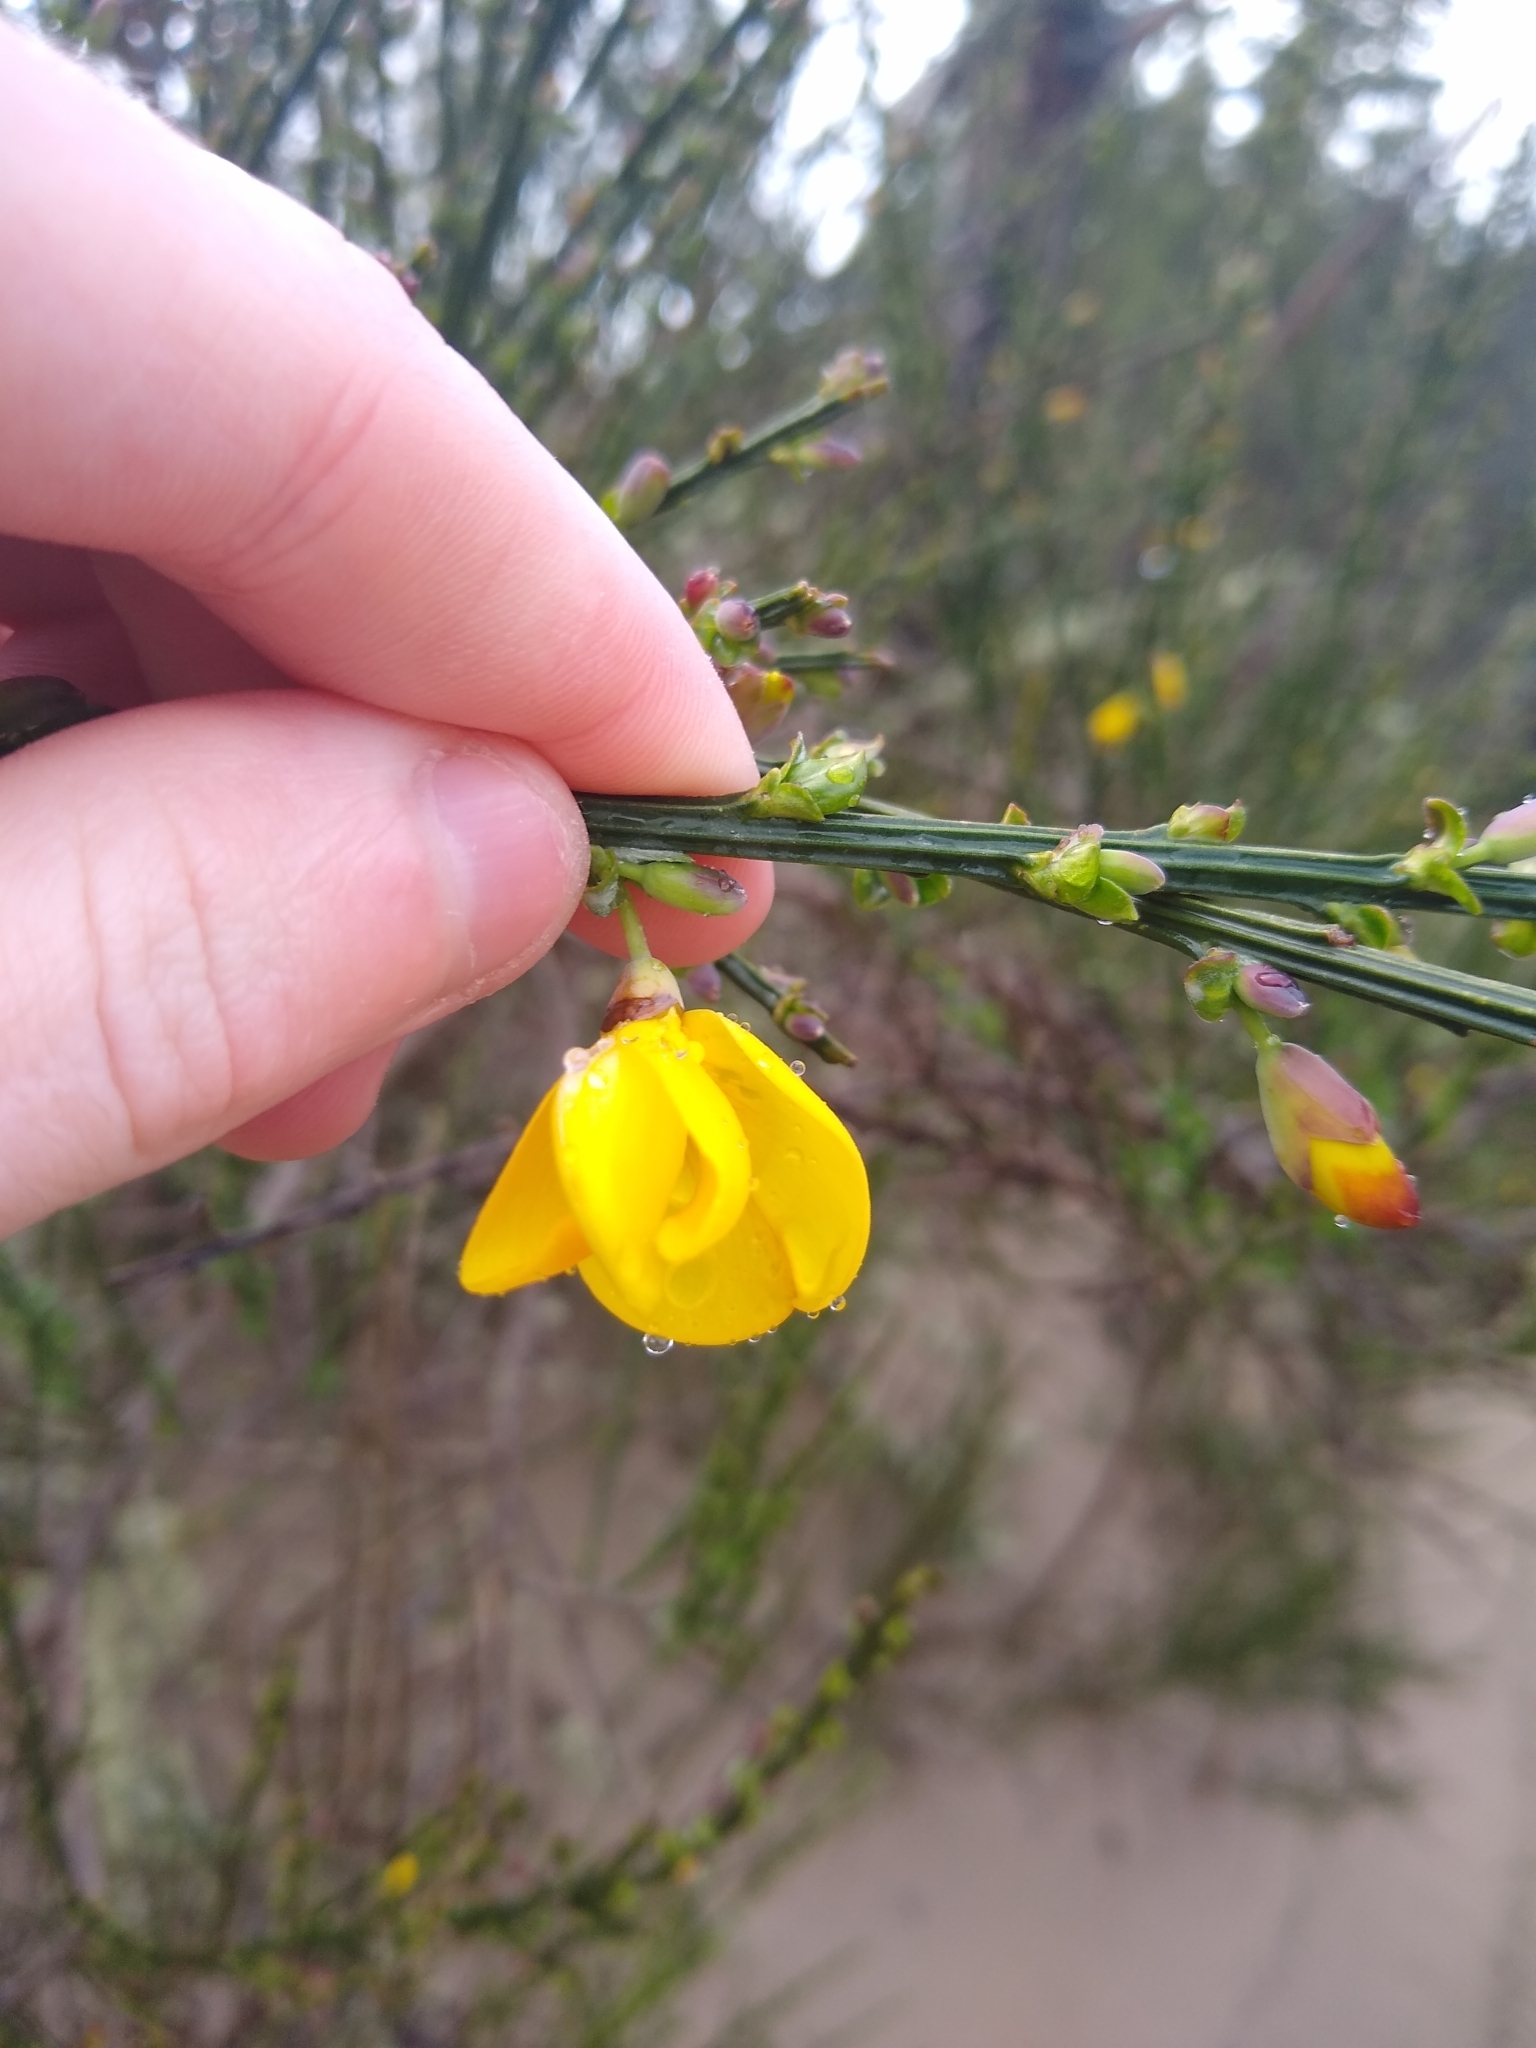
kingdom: Plantae
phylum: Tracheophyta
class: Magnoliopsida
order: Fabales
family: Fabaceae
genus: Cytisus
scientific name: Cytisus scoparius
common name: Scotch broom
